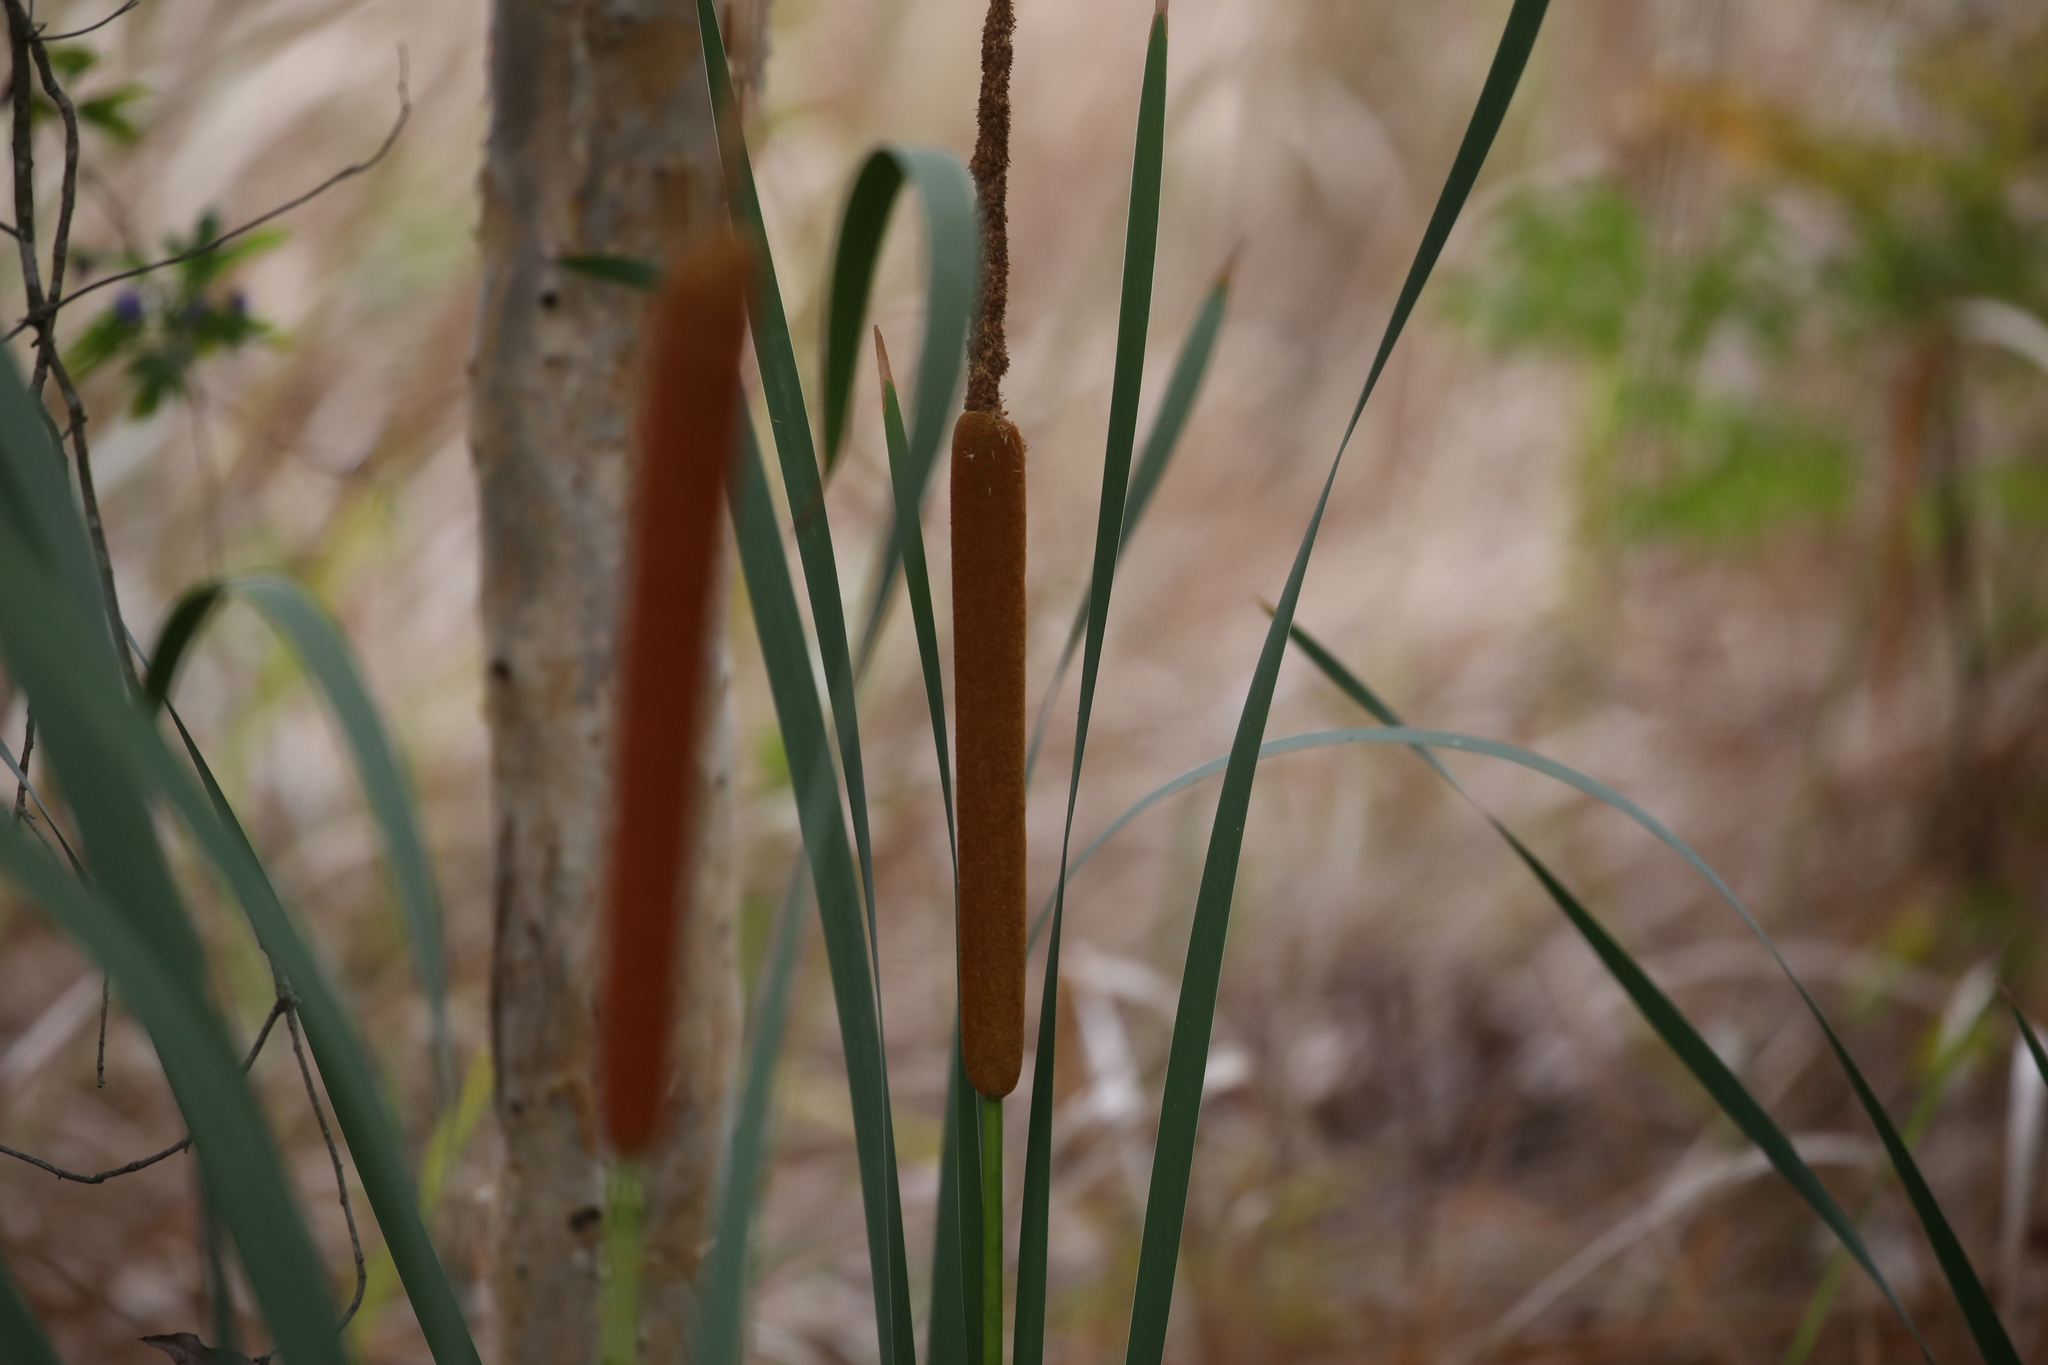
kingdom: Plantae
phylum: Tracheophyta
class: Liliopsida
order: Poales
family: Typhaceae
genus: Typha
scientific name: Typha orientalis
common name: Bullrush
